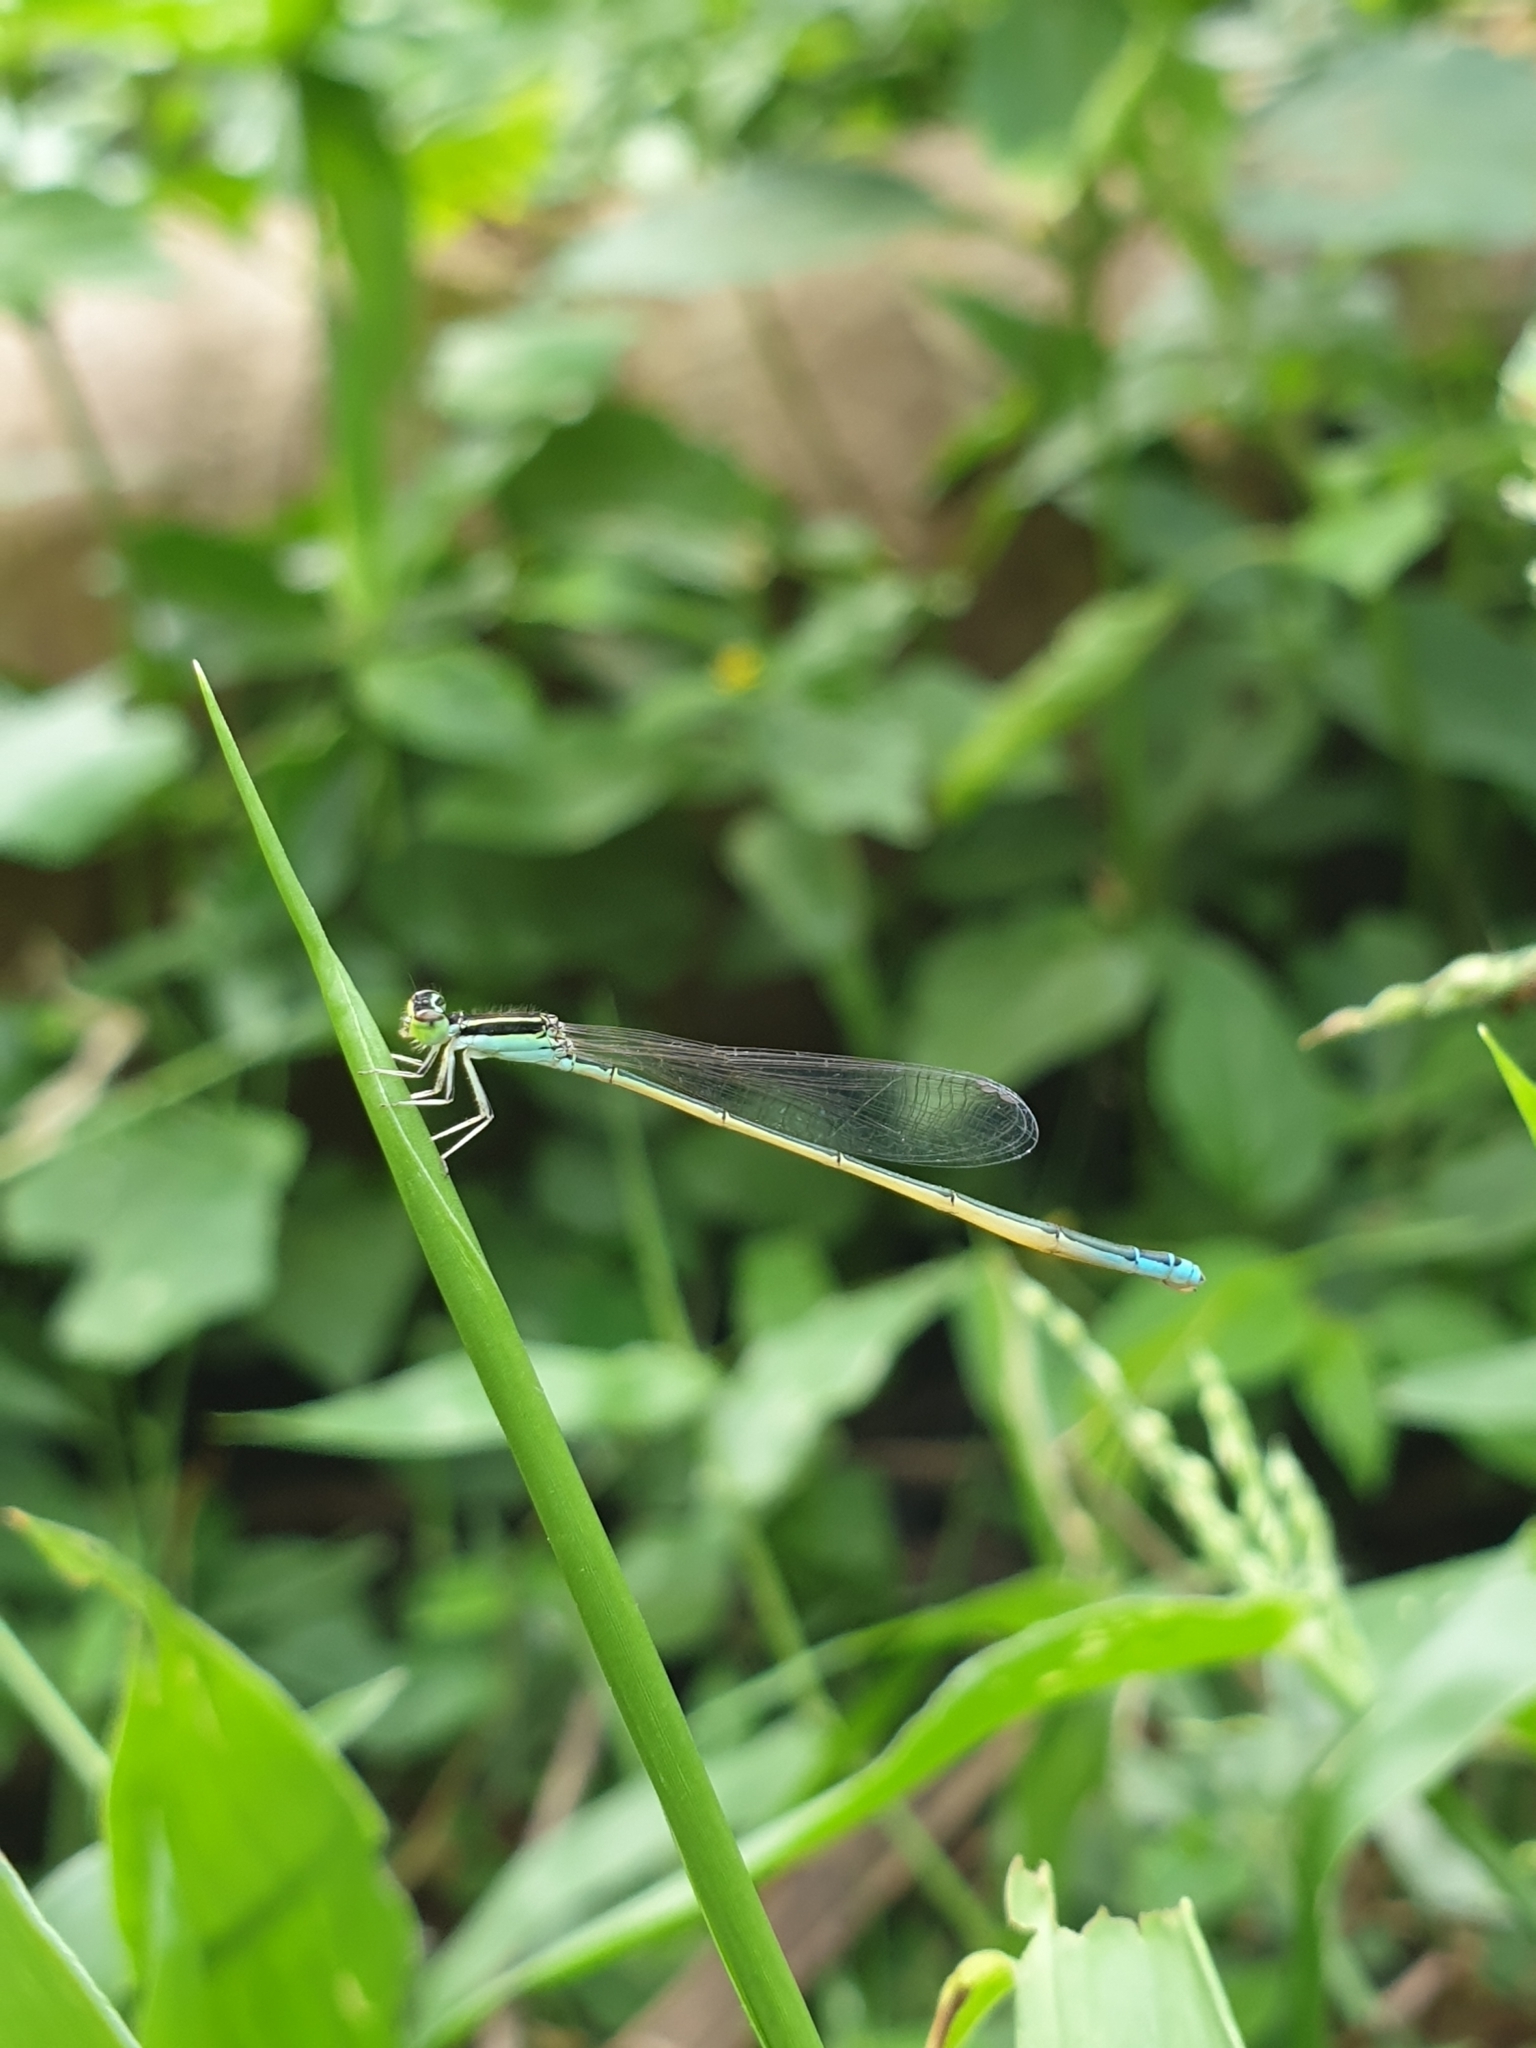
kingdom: Animalia
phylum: Arthropoda
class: Insecta
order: Odonata
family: Coenagrionidae
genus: Aciagrion
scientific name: Aciagrion occidentale
